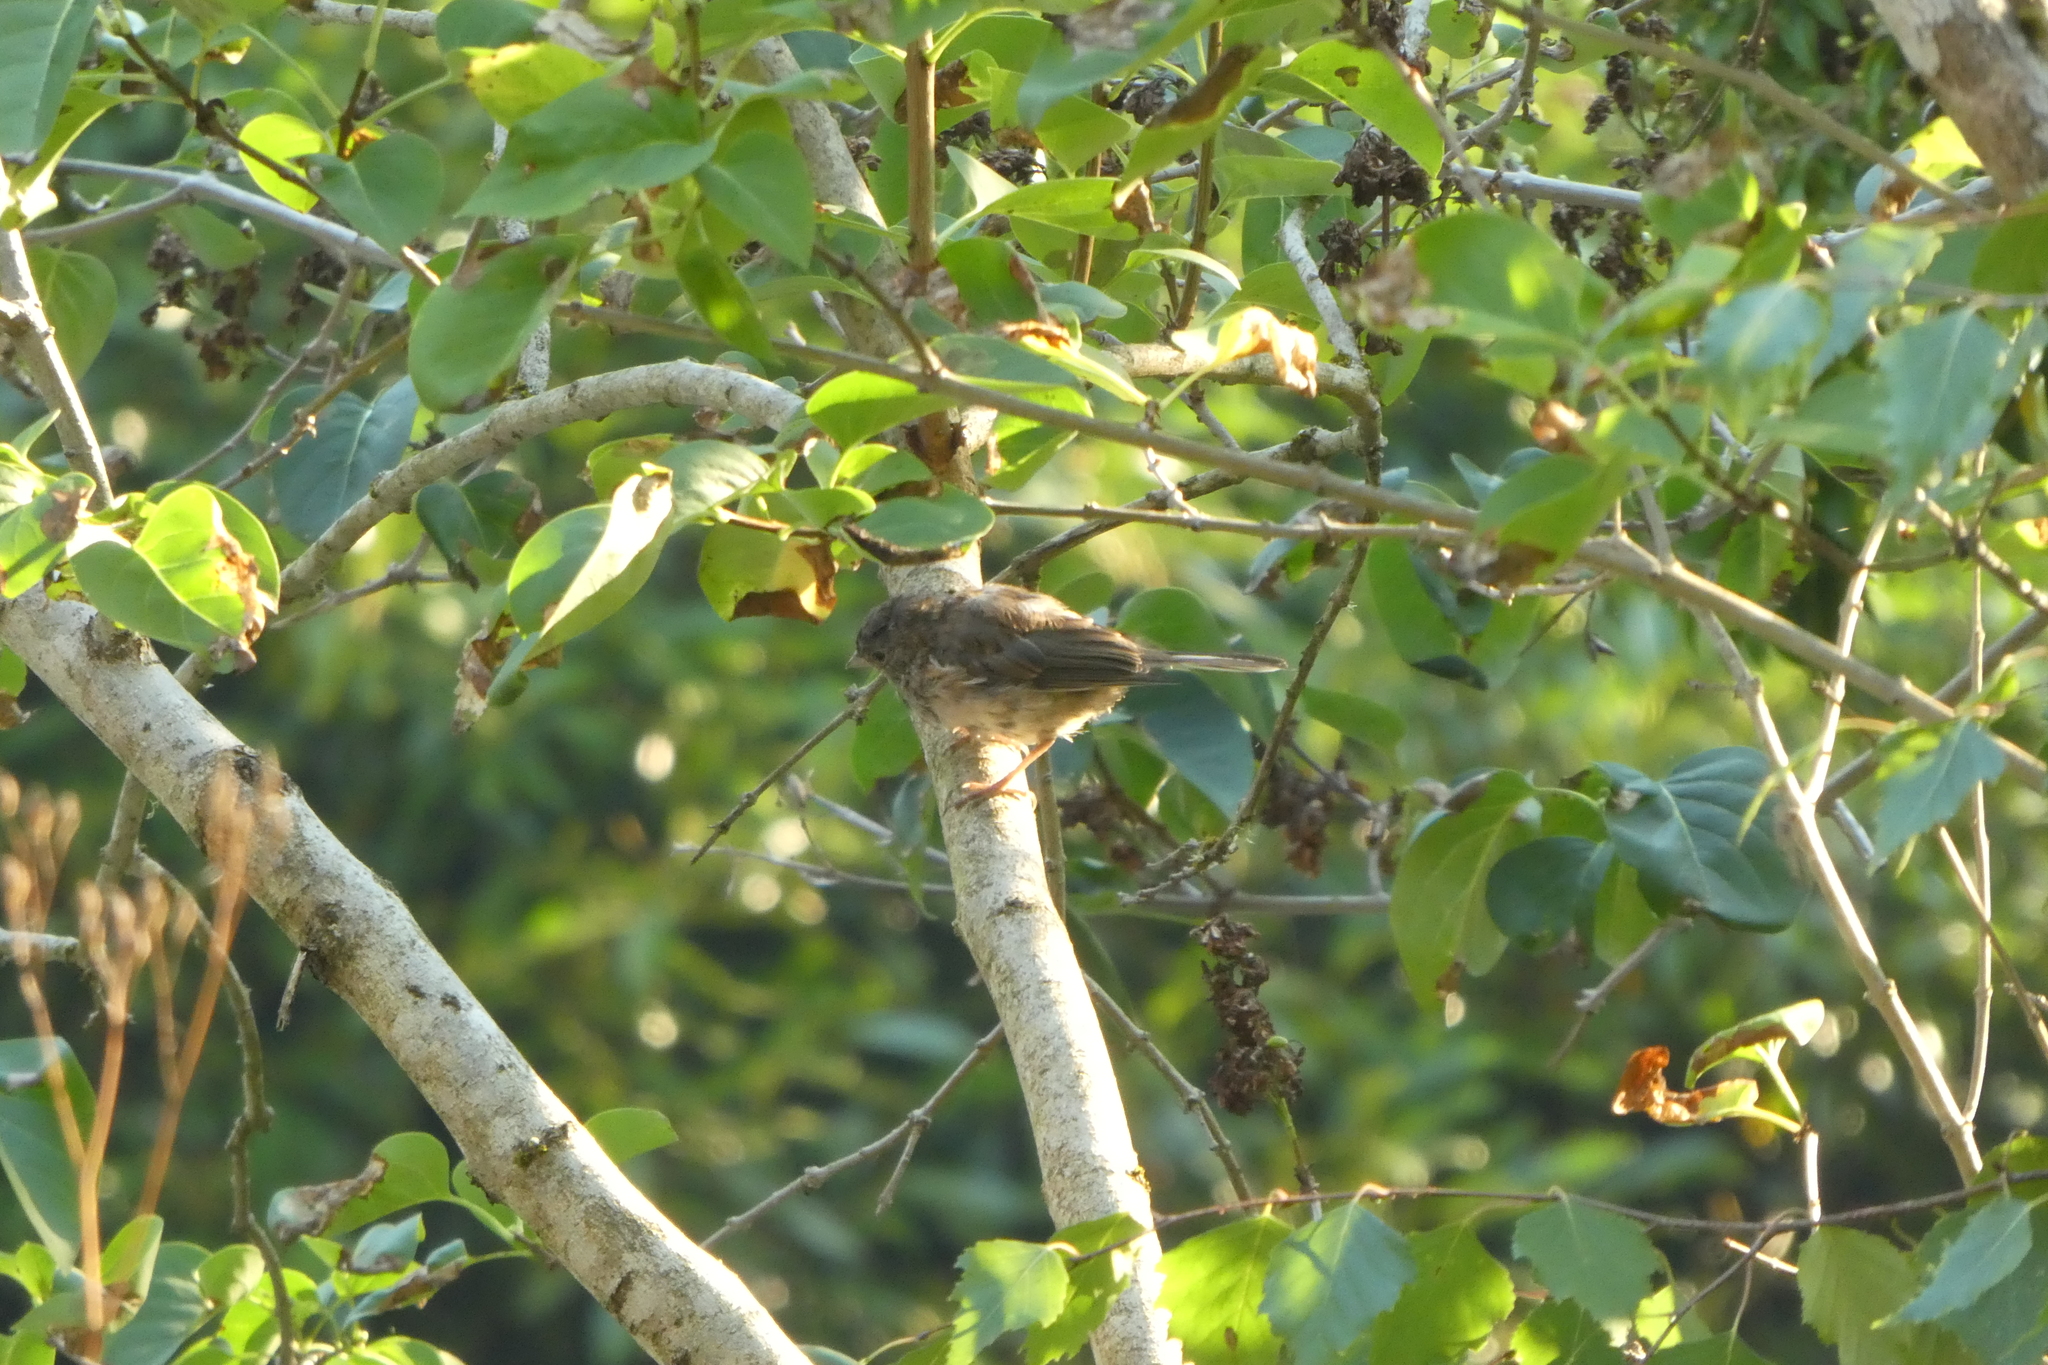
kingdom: Animalia
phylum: Chordata
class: Aves
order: Passeriformes
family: Passerellidae
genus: Junco
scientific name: Junco hyemalis
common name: Dark-eyed junco
